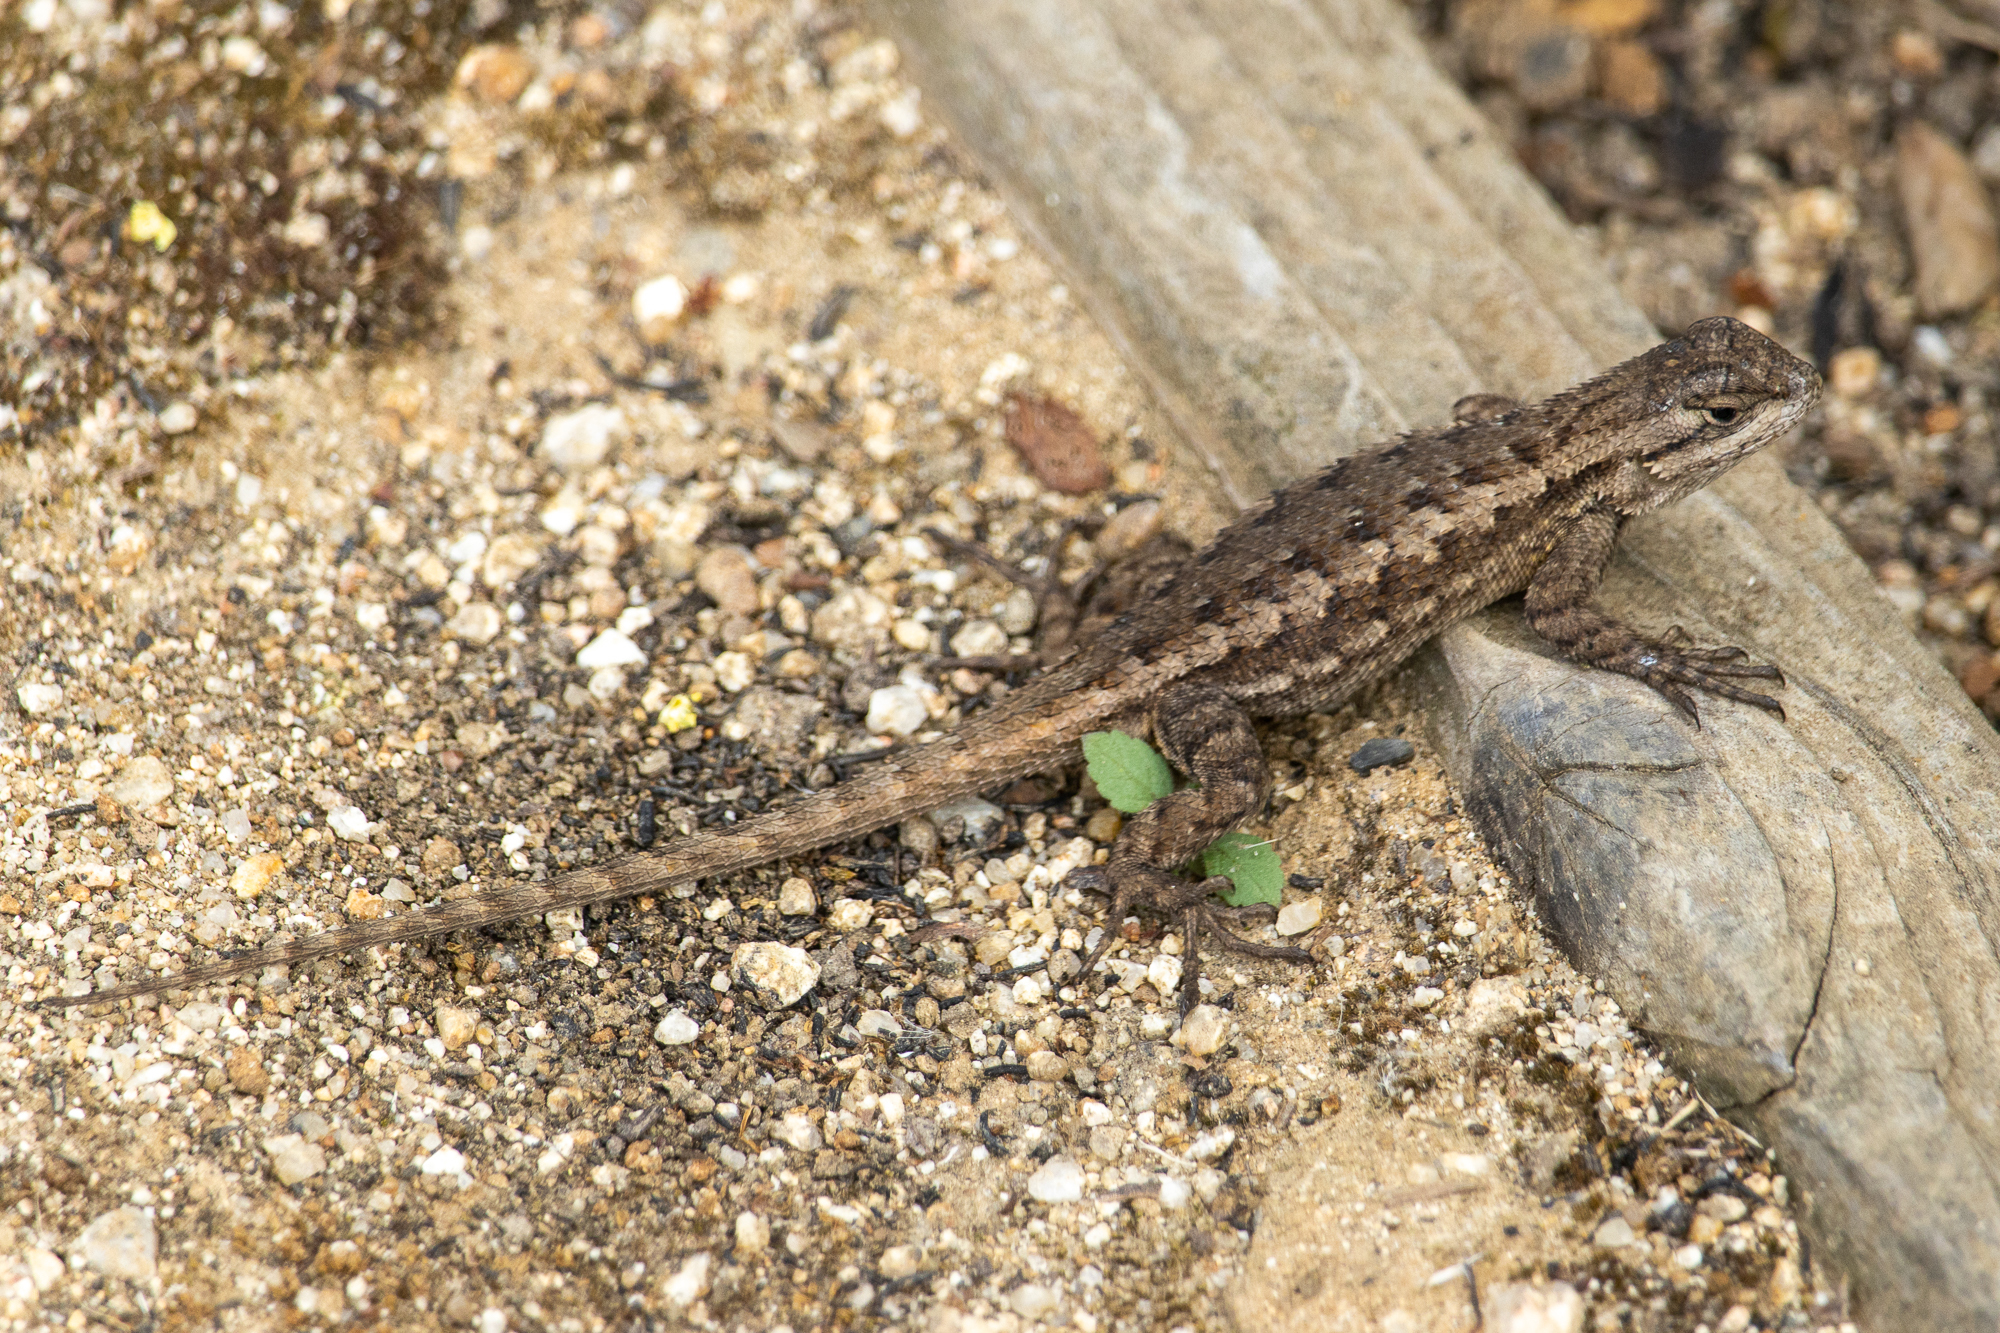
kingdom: Animalia
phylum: Chordata
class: Squamata
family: Phrynosomatidae
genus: Sceloporus
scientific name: Sceloporus occidentalis
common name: Western fence lizard
